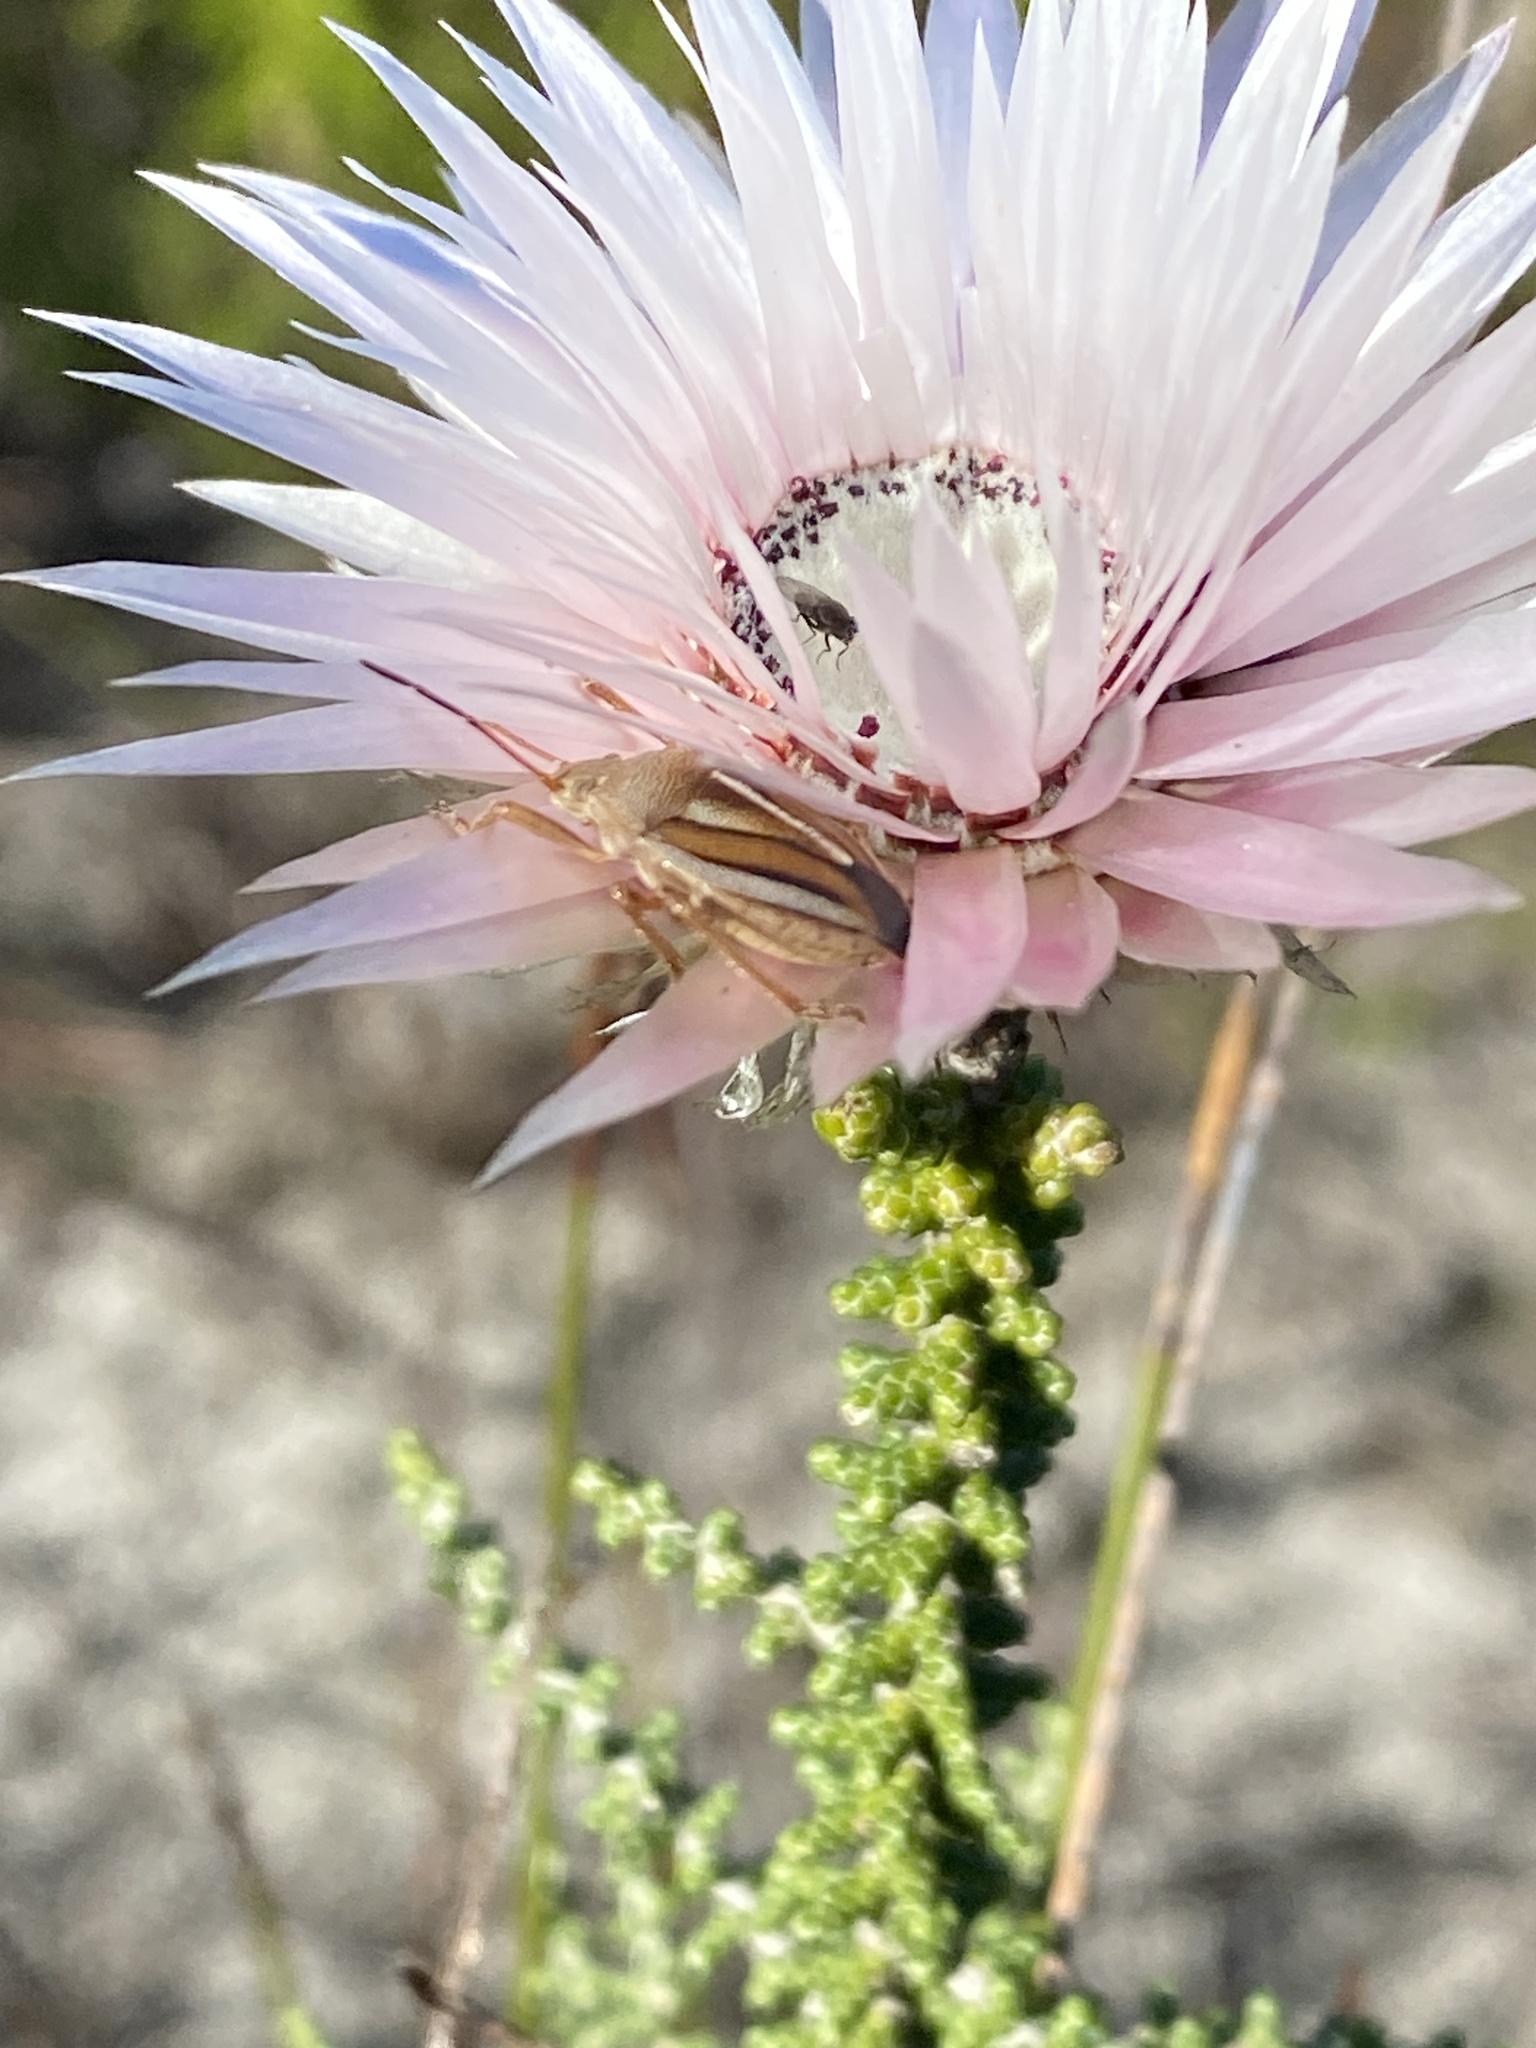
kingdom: Animalia
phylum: Arthropoda
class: Insecta
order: Hemiptera
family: Pentatomidae
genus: Theloris
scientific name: Theloris costata
